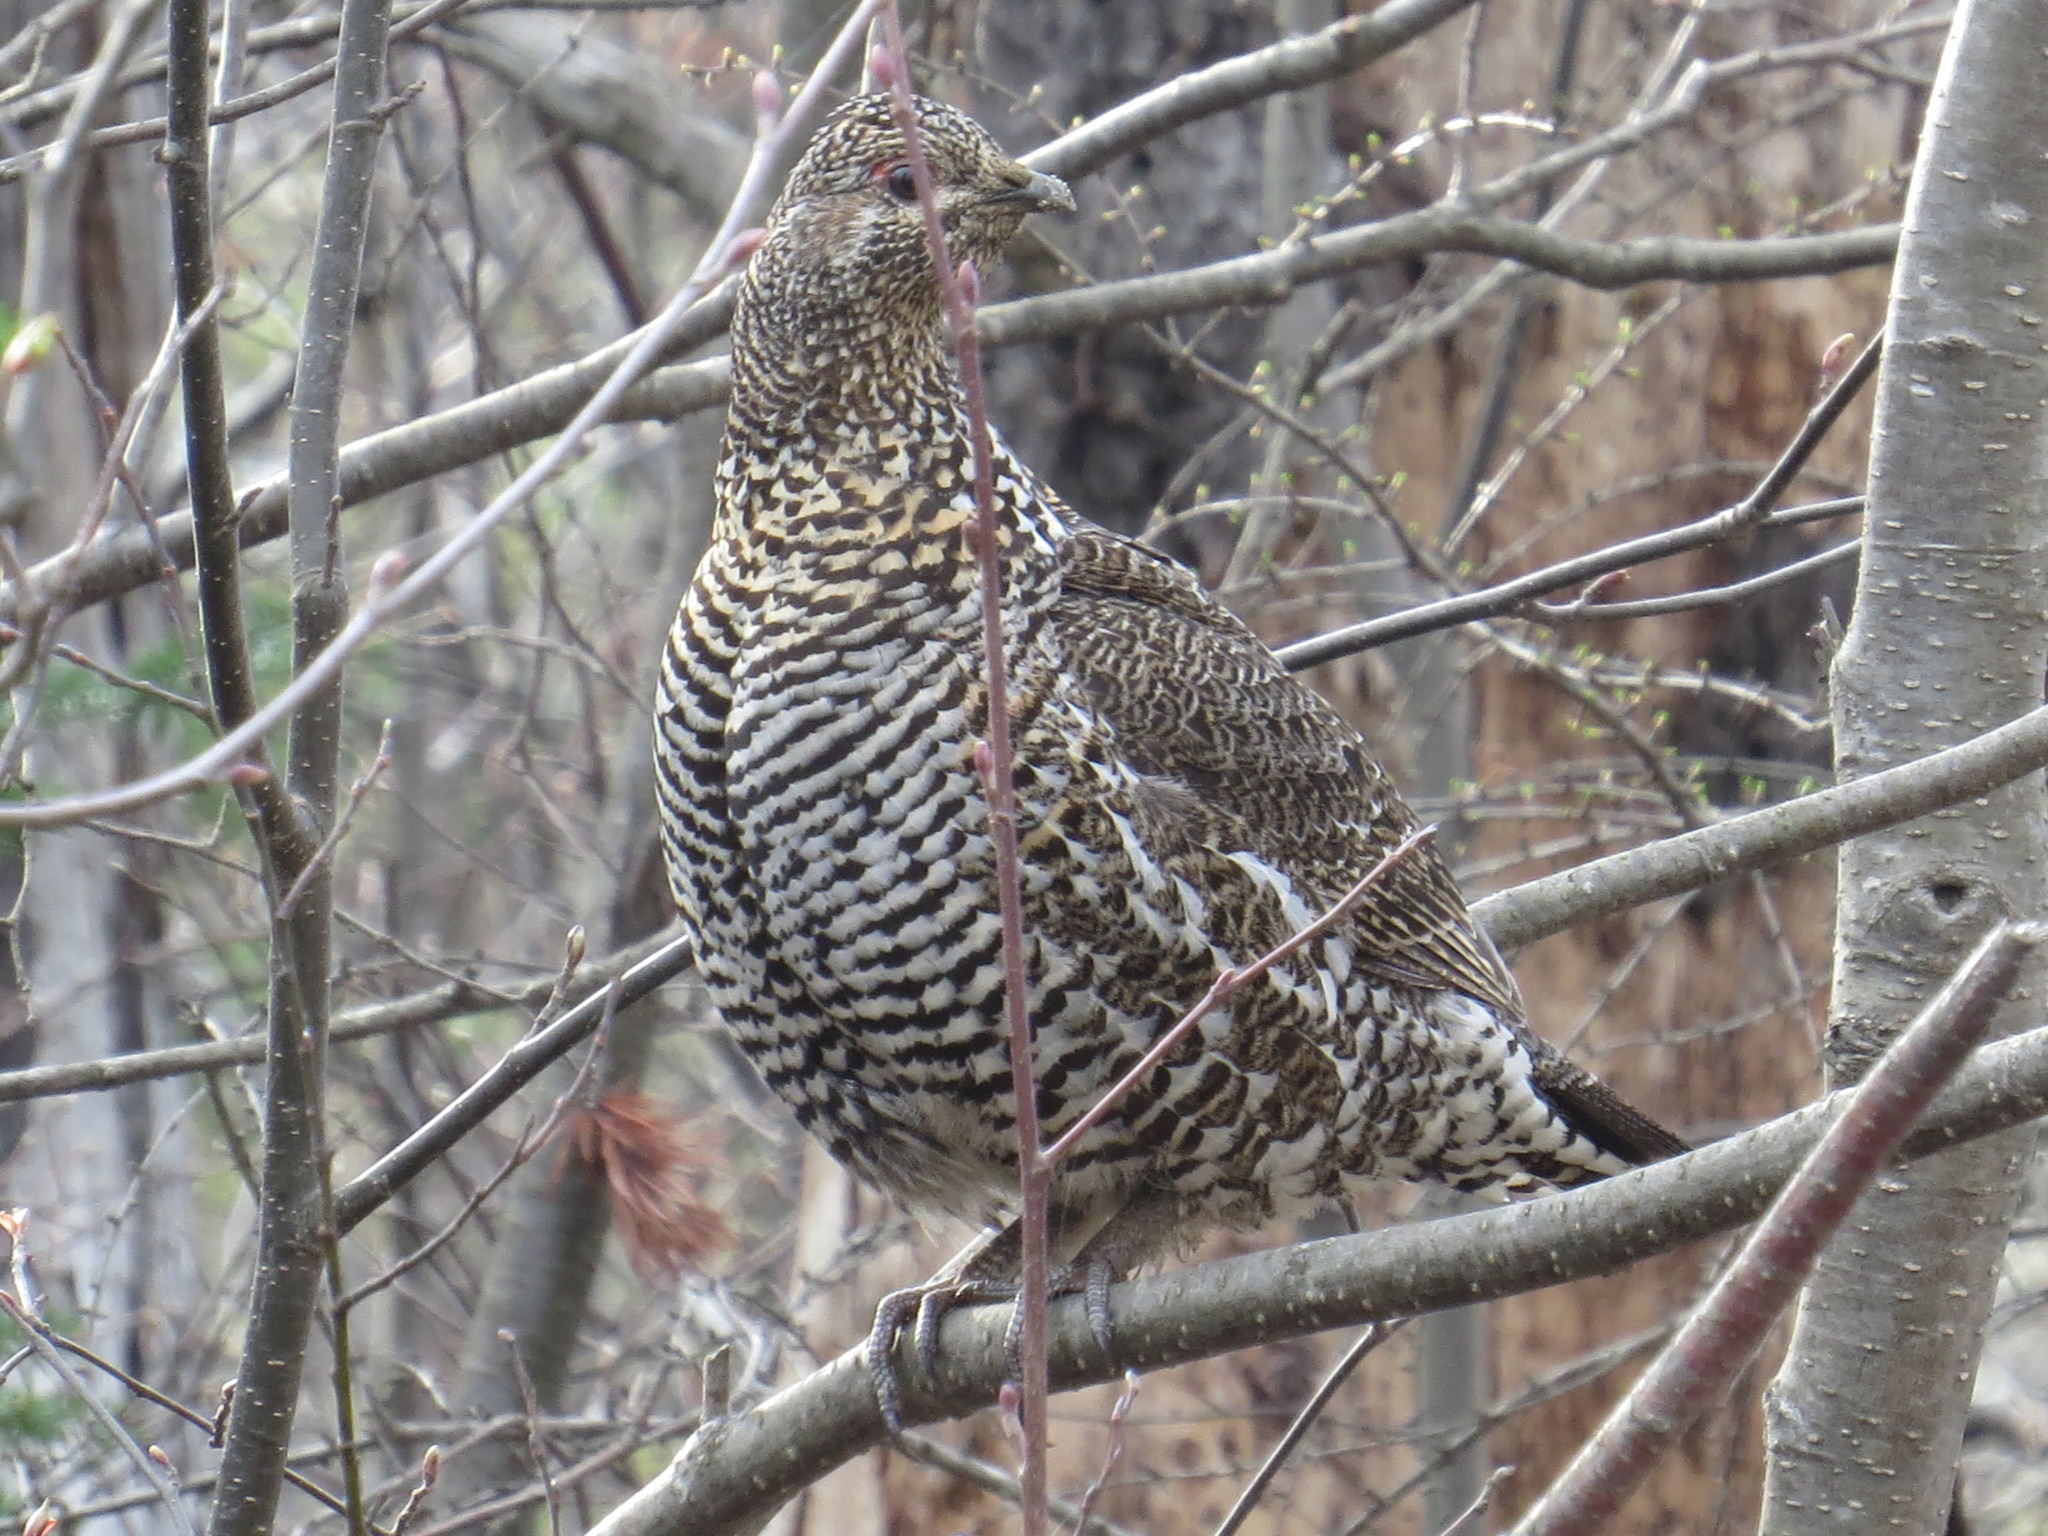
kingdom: Animalia
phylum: Chordata
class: Aves
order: Galliformes
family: Phasianidae
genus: Canachites
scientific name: Canachites canadensis
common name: Spruce grouse
